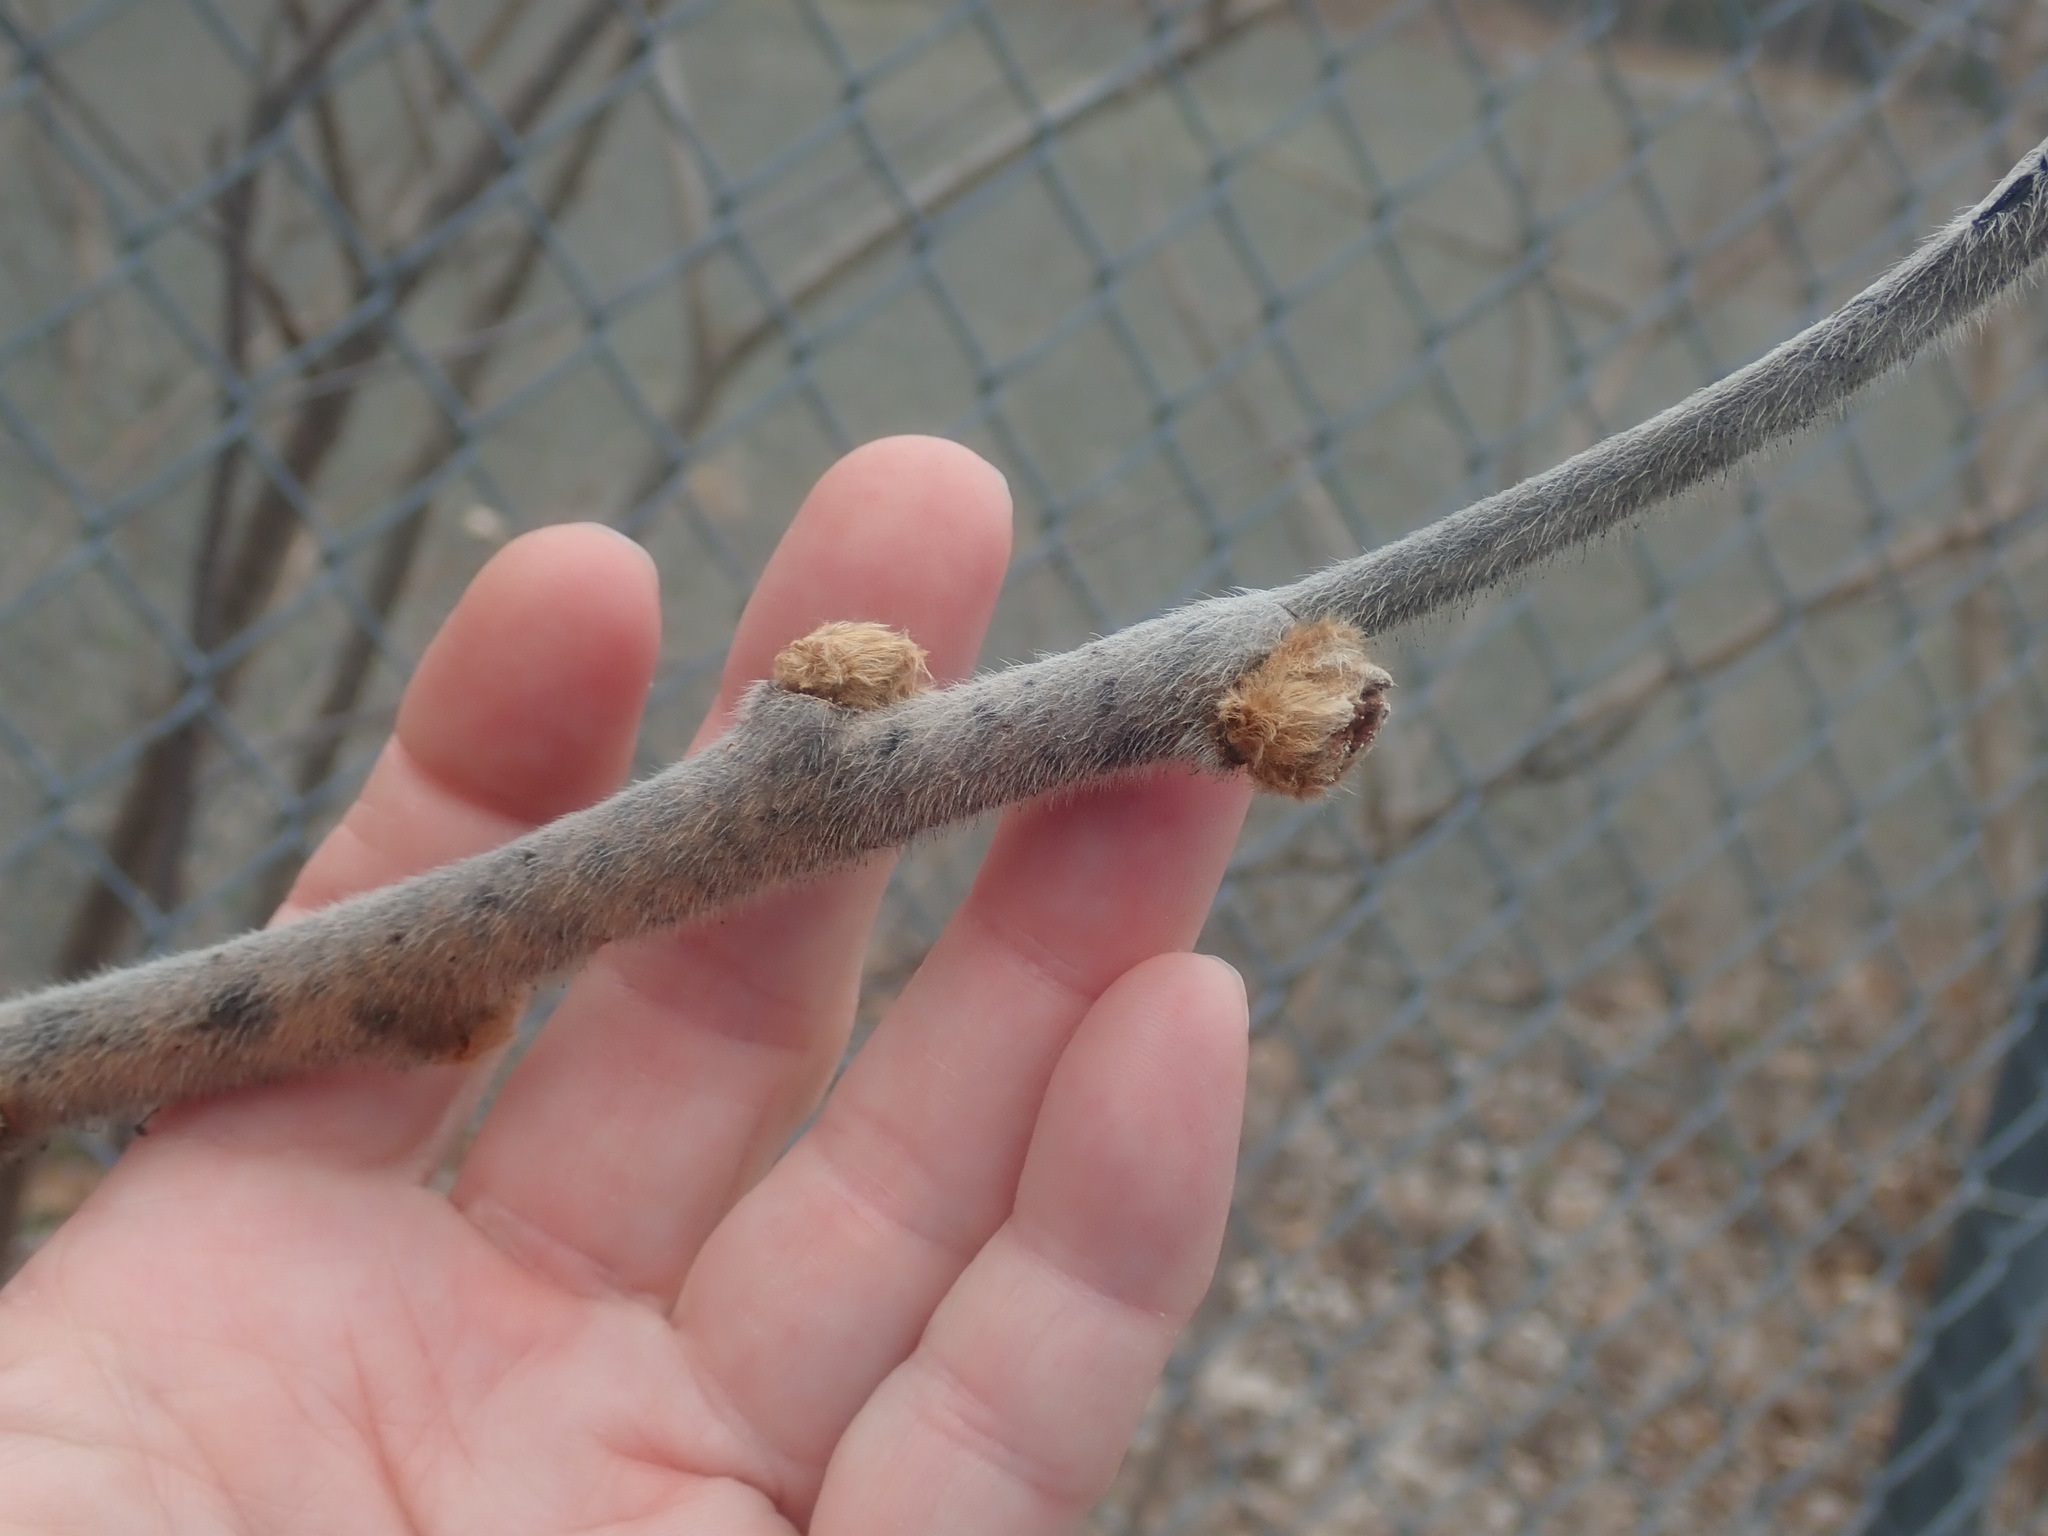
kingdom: Plantae
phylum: Tracheophyta
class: Magnoliopsida
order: Sapindales
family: Anacardiaceae
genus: Rhus
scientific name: Rhus typhina
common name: Staghorn sumac
